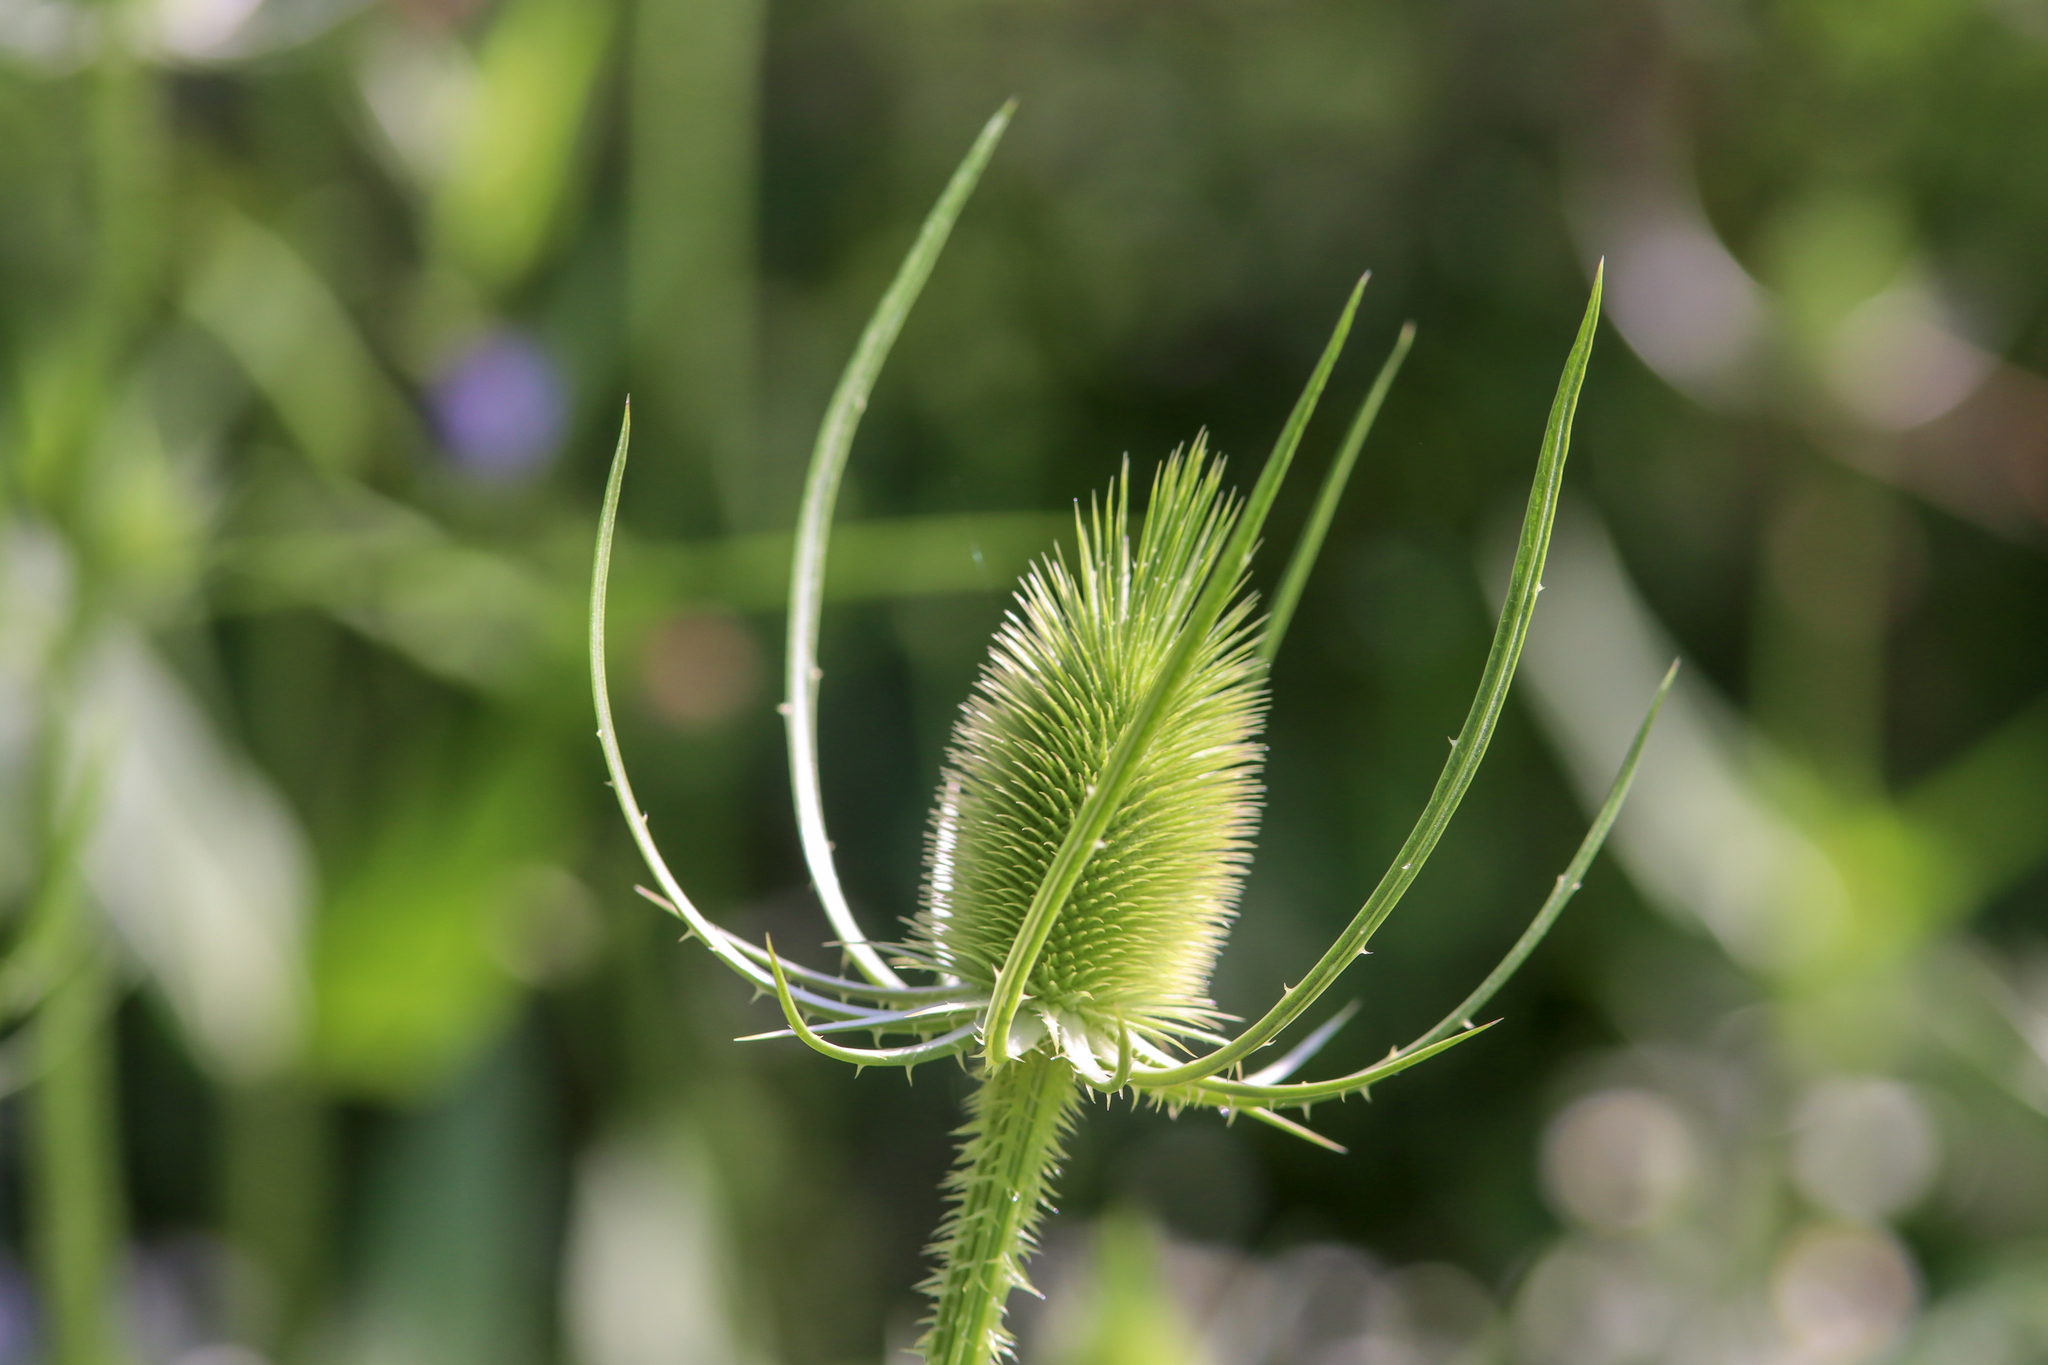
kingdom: Plantae
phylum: Tracheophyta
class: Magnoliopsida
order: Dipsacales
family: Caprifoliaceae
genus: Dipsacus
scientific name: Dipsacus fullonum
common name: Teasel
